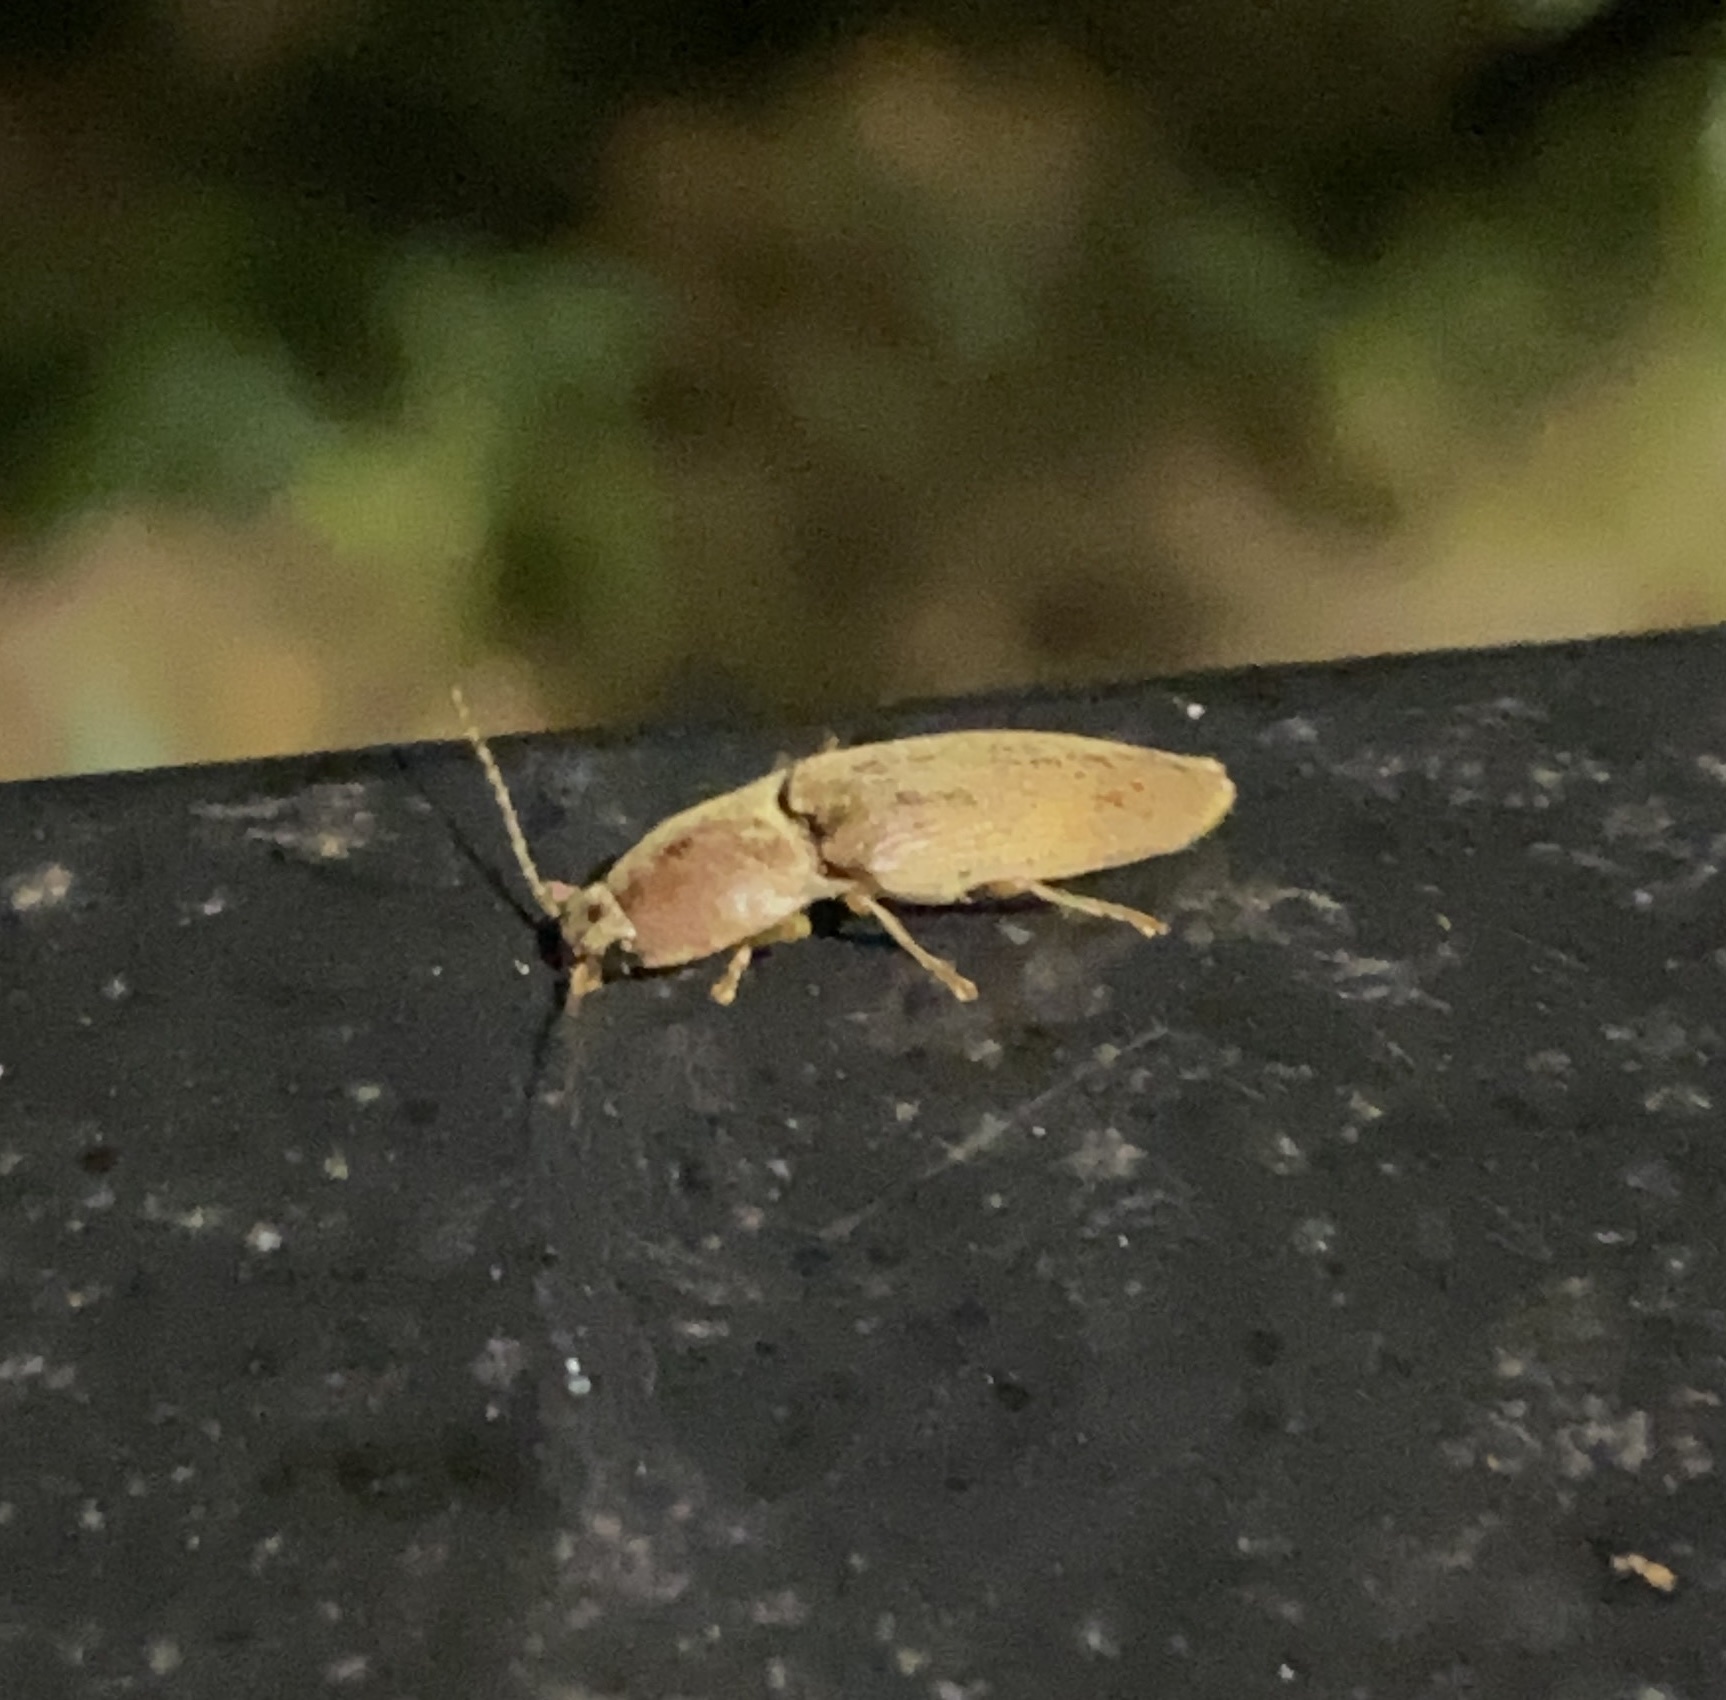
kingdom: Animalia
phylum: Arthropoda
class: Insecta
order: Coleoptera
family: Elateridae
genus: Monocrepidius
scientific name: Monocrepidius lividus
